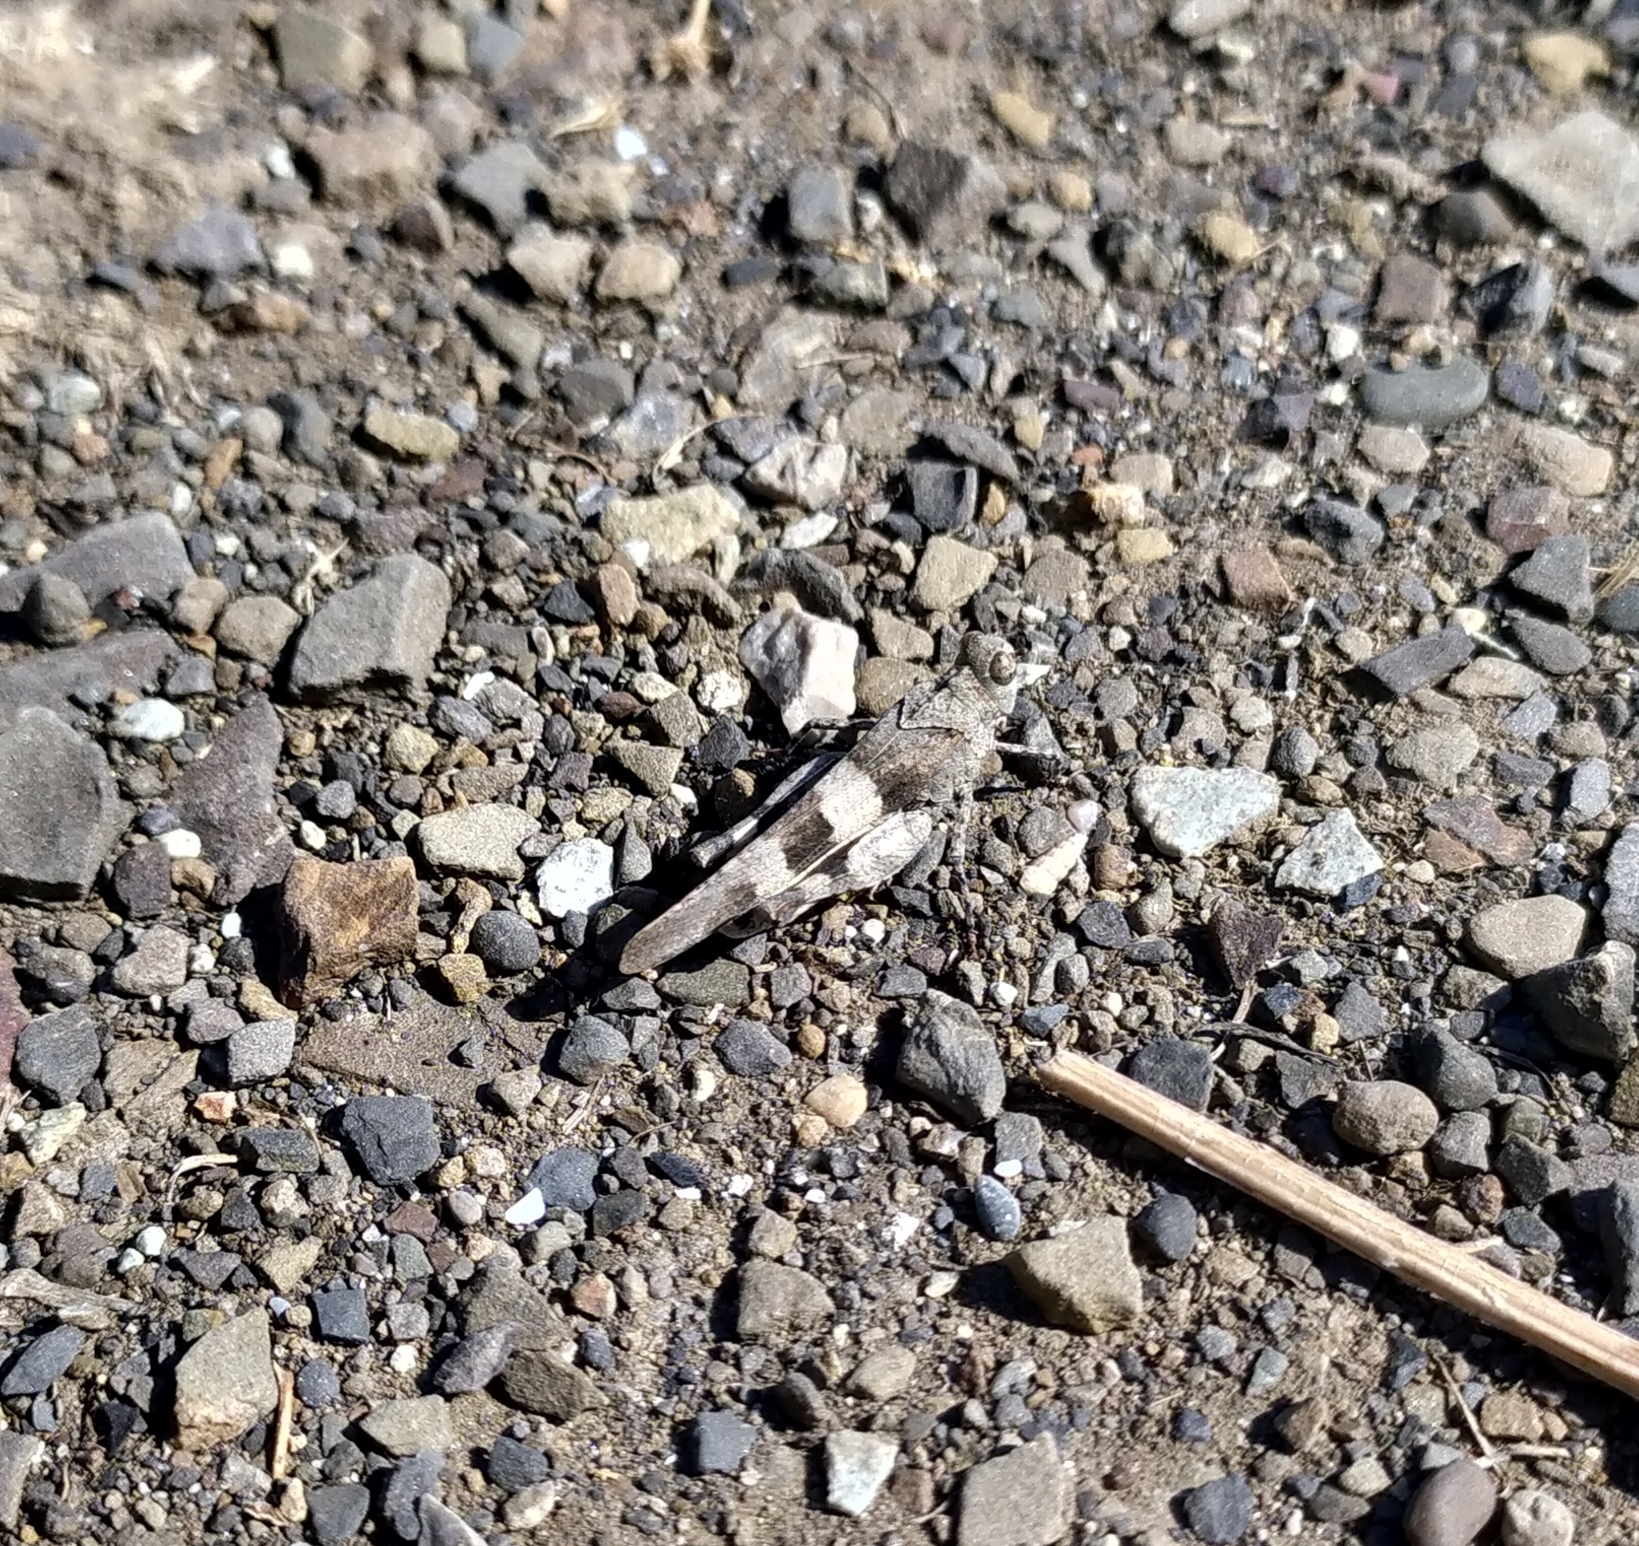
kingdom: Animalia
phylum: Arthropoda
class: Insecta
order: Orthoptera
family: Acrididae
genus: Oedipoda
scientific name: Oedipoda caerulescens
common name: Blue-winged grasshopper
